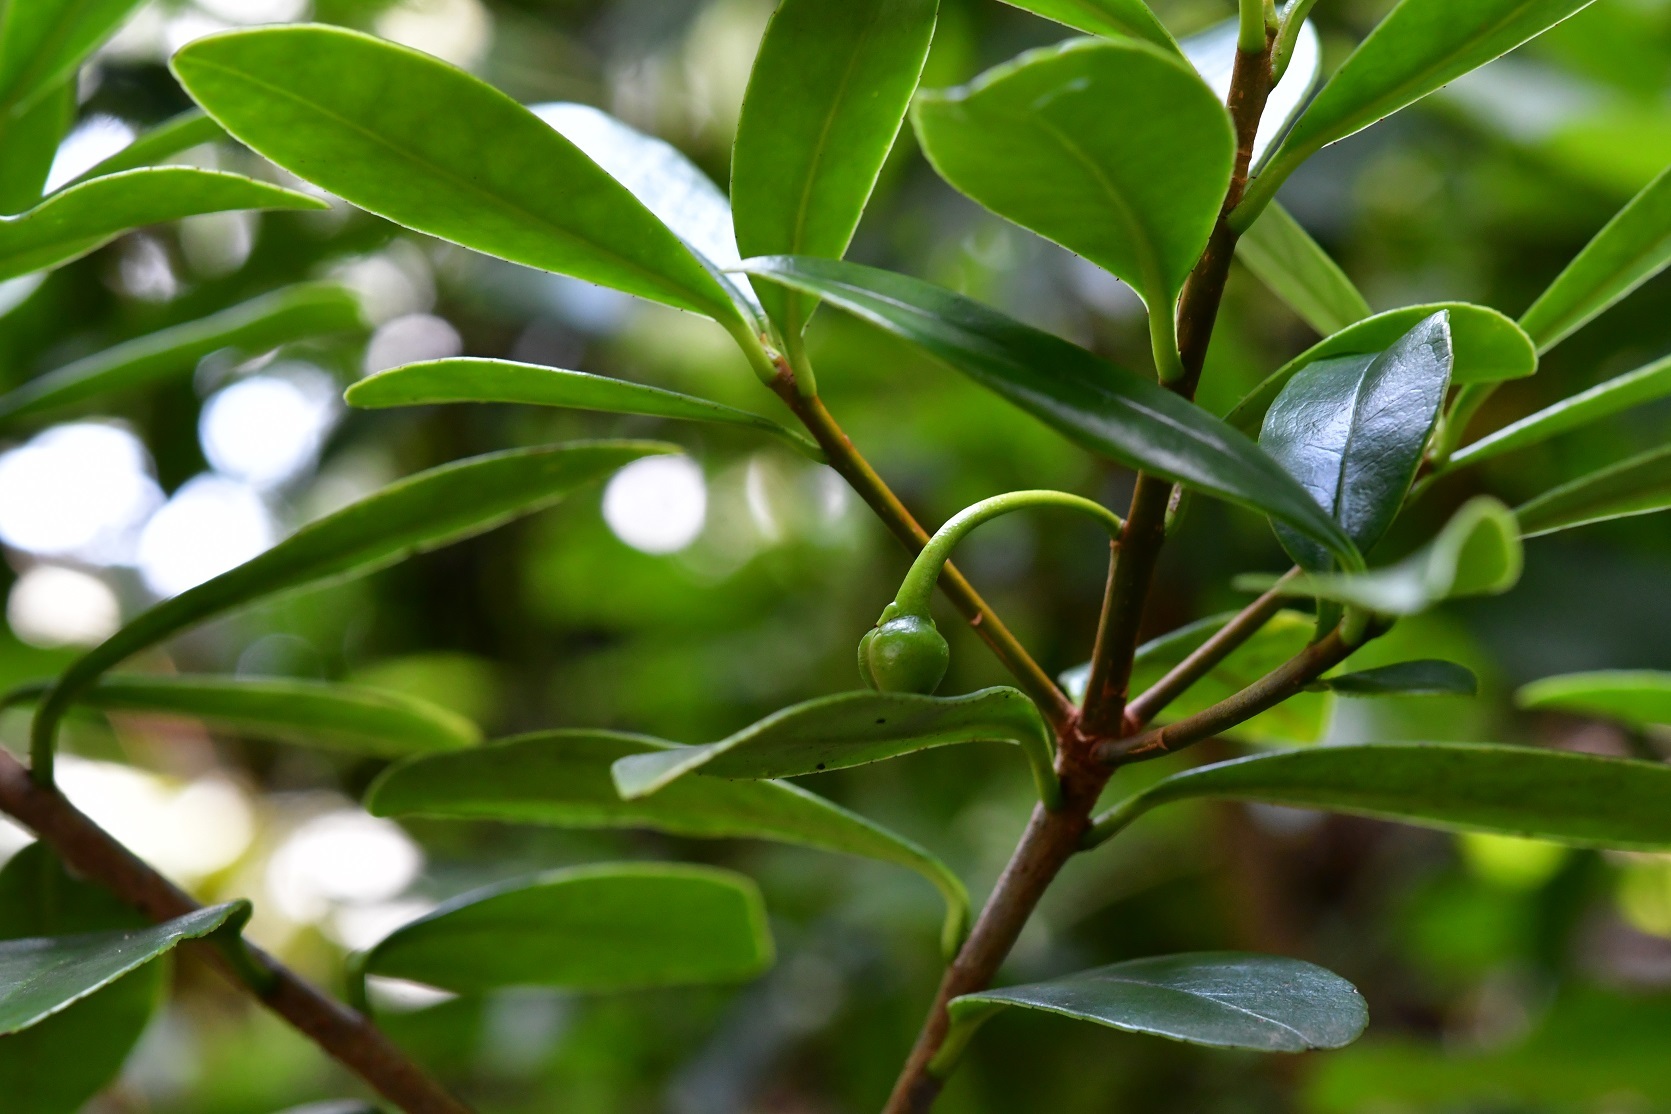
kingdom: Plantae
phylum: Tracheophyta
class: Magnoliopsida
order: Ericales
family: Pentaphylacaceae
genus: Ternstroemia
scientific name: Ternstroemia lineata
